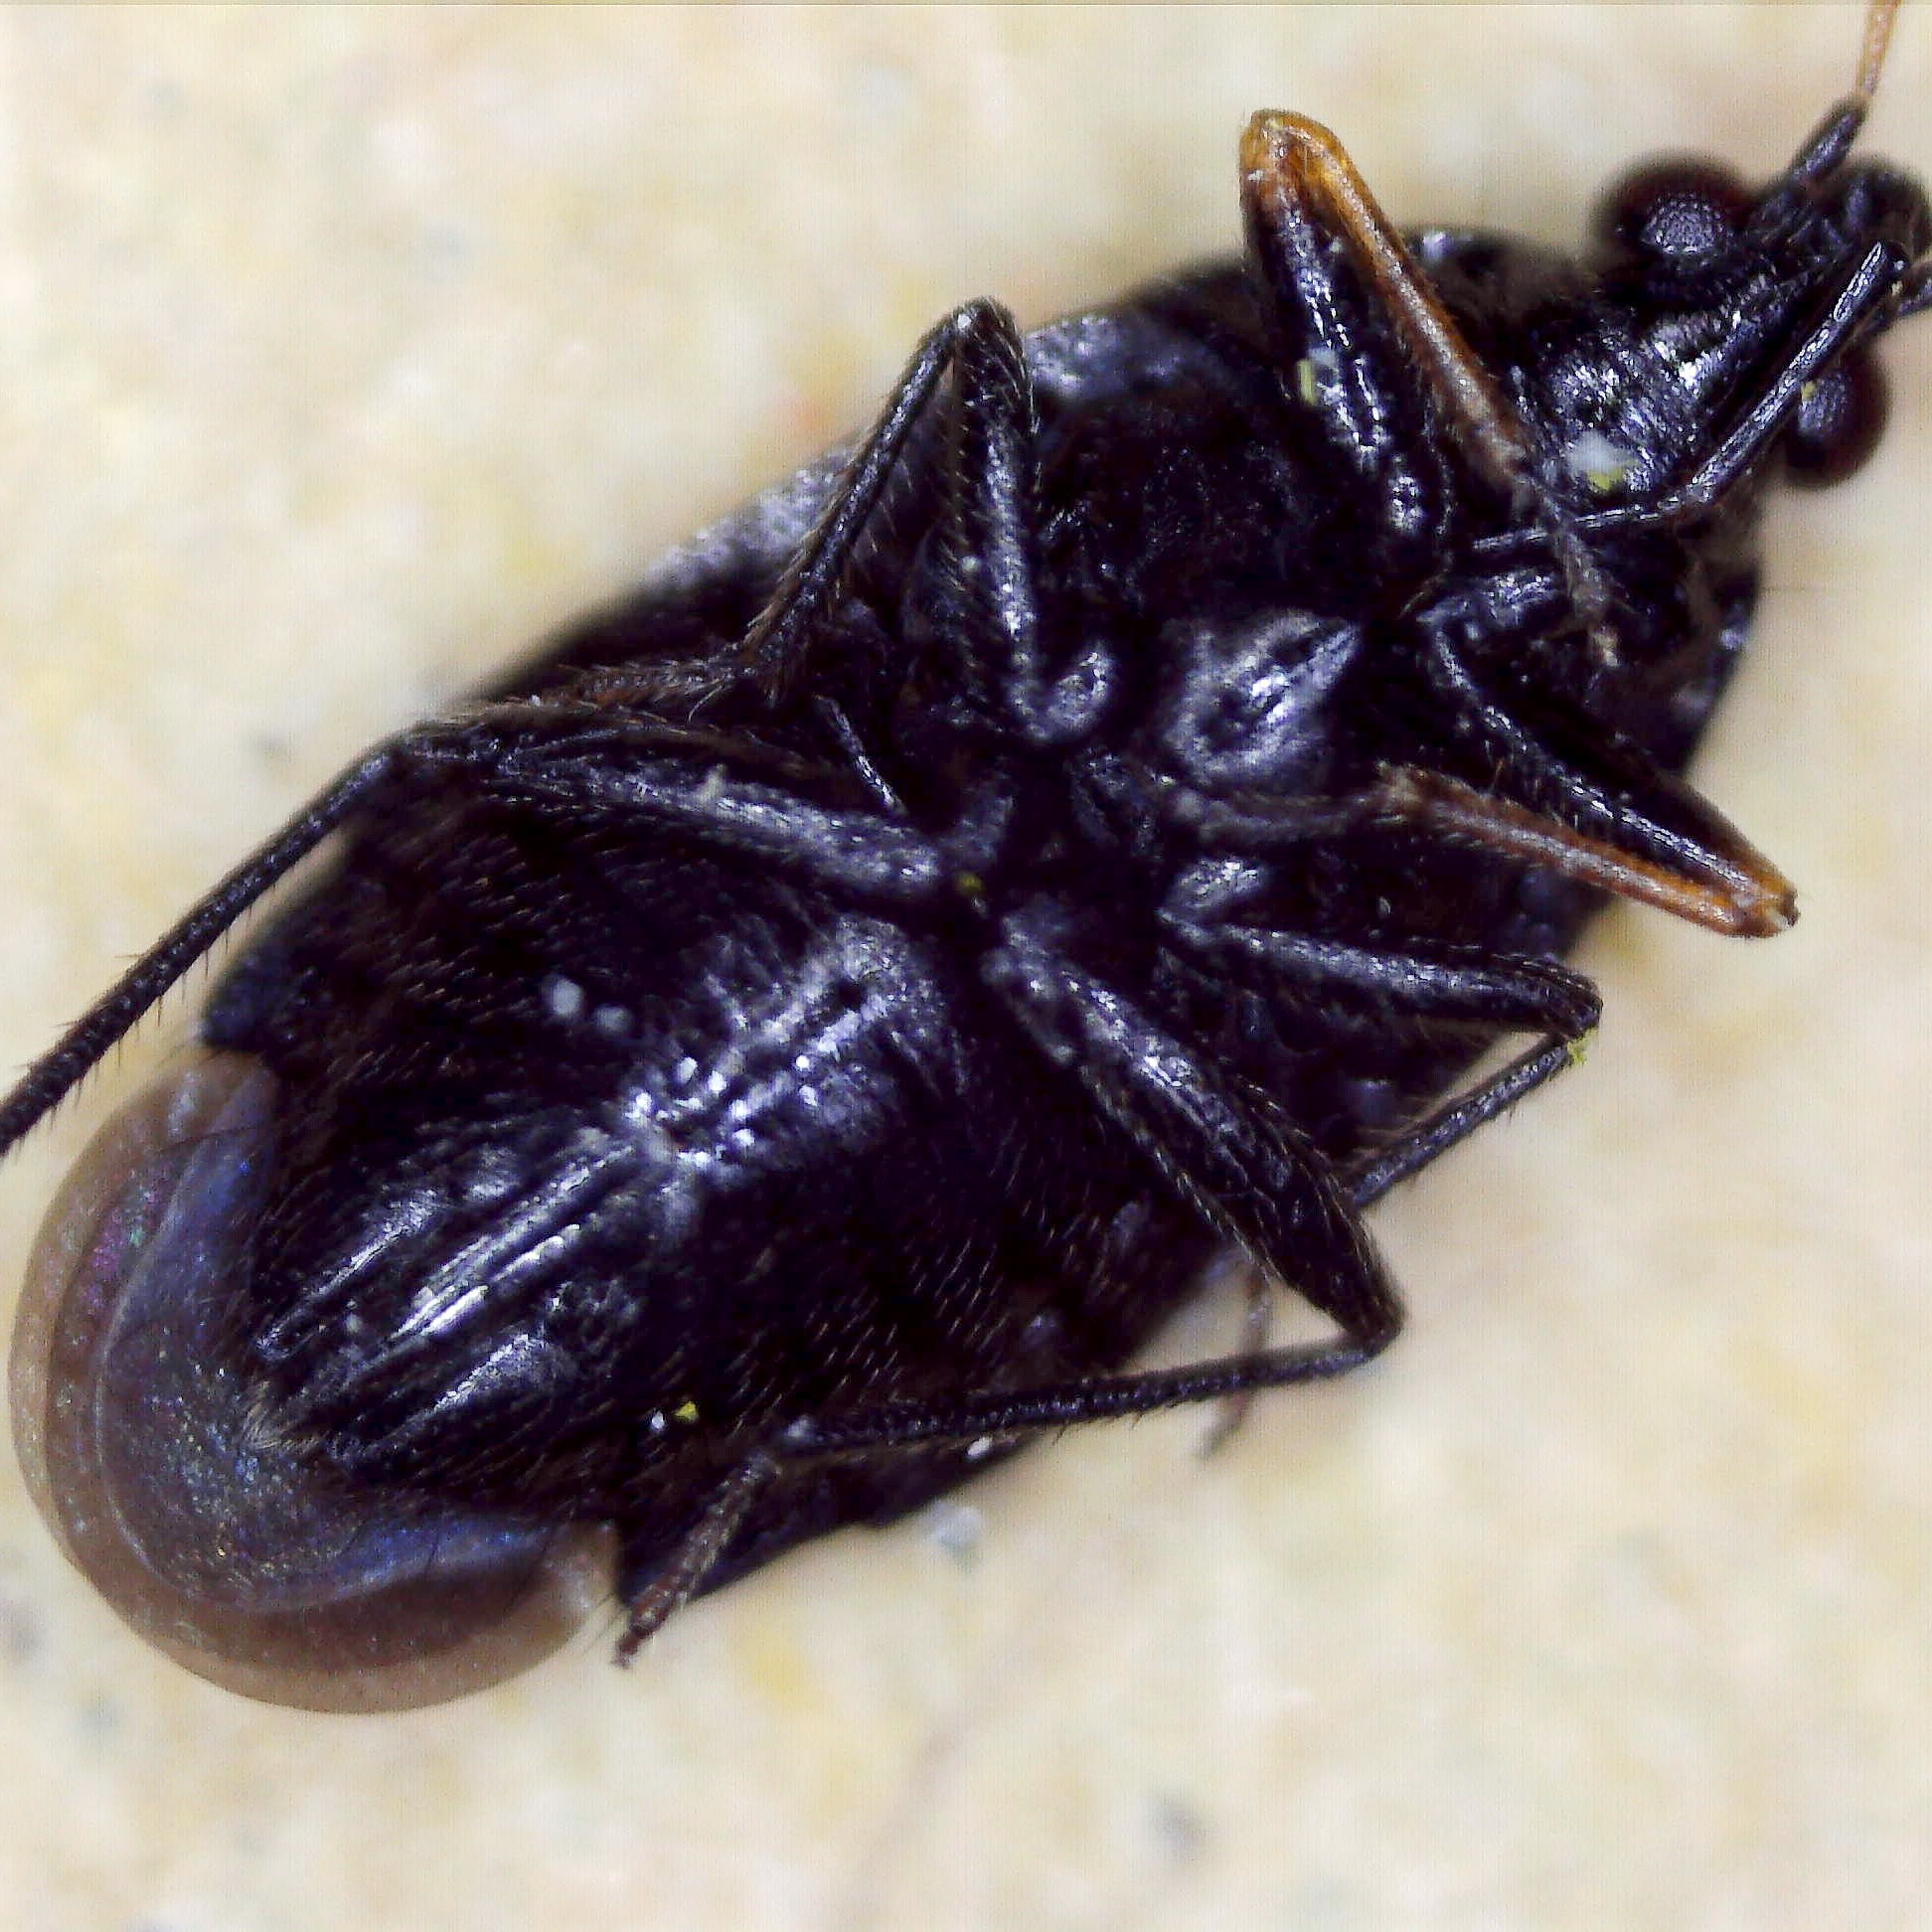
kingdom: Animalia
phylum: Arthropoda
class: Insecta
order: Hemiptera
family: Anthocoridae
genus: Orius
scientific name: Orius niger
